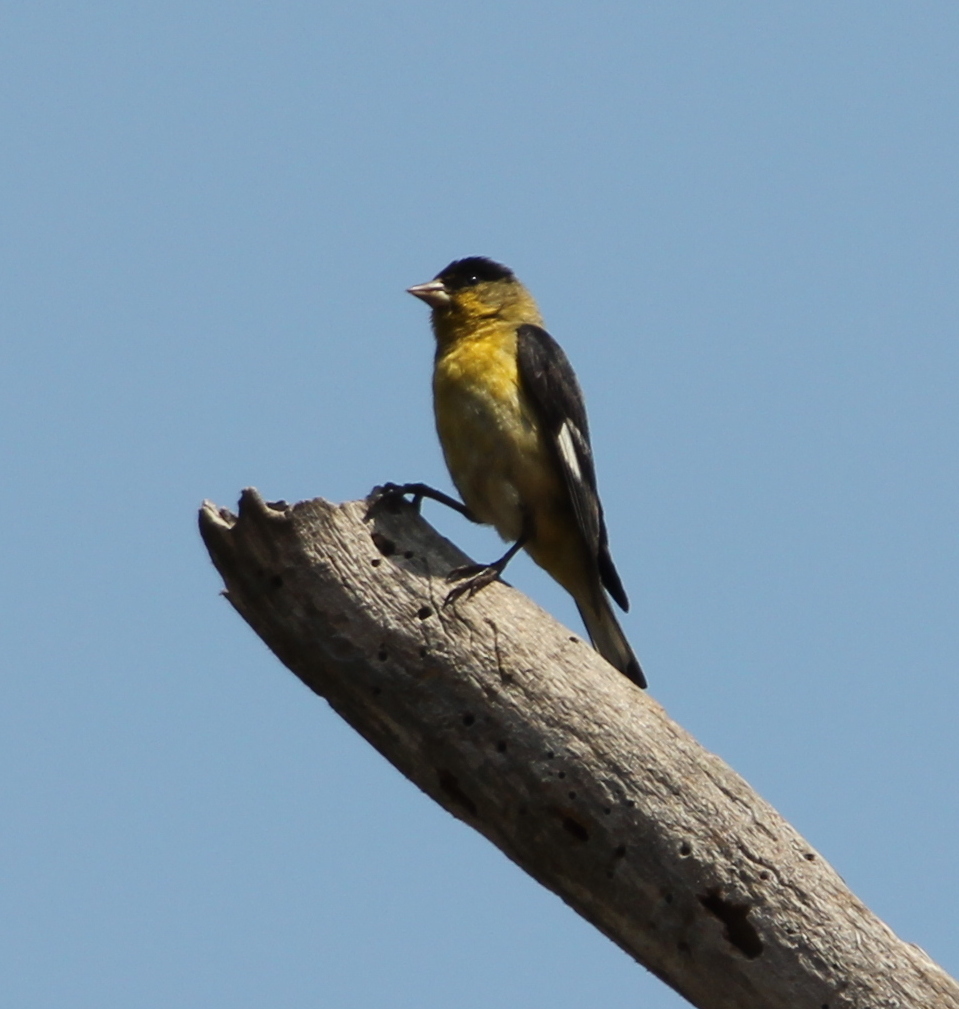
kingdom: Animalia
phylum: Chordata
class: Aves
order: Passeriformes
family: Fringillidae
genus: Spinus
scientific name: Spinus psaltria
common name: Lesser goldfinch
